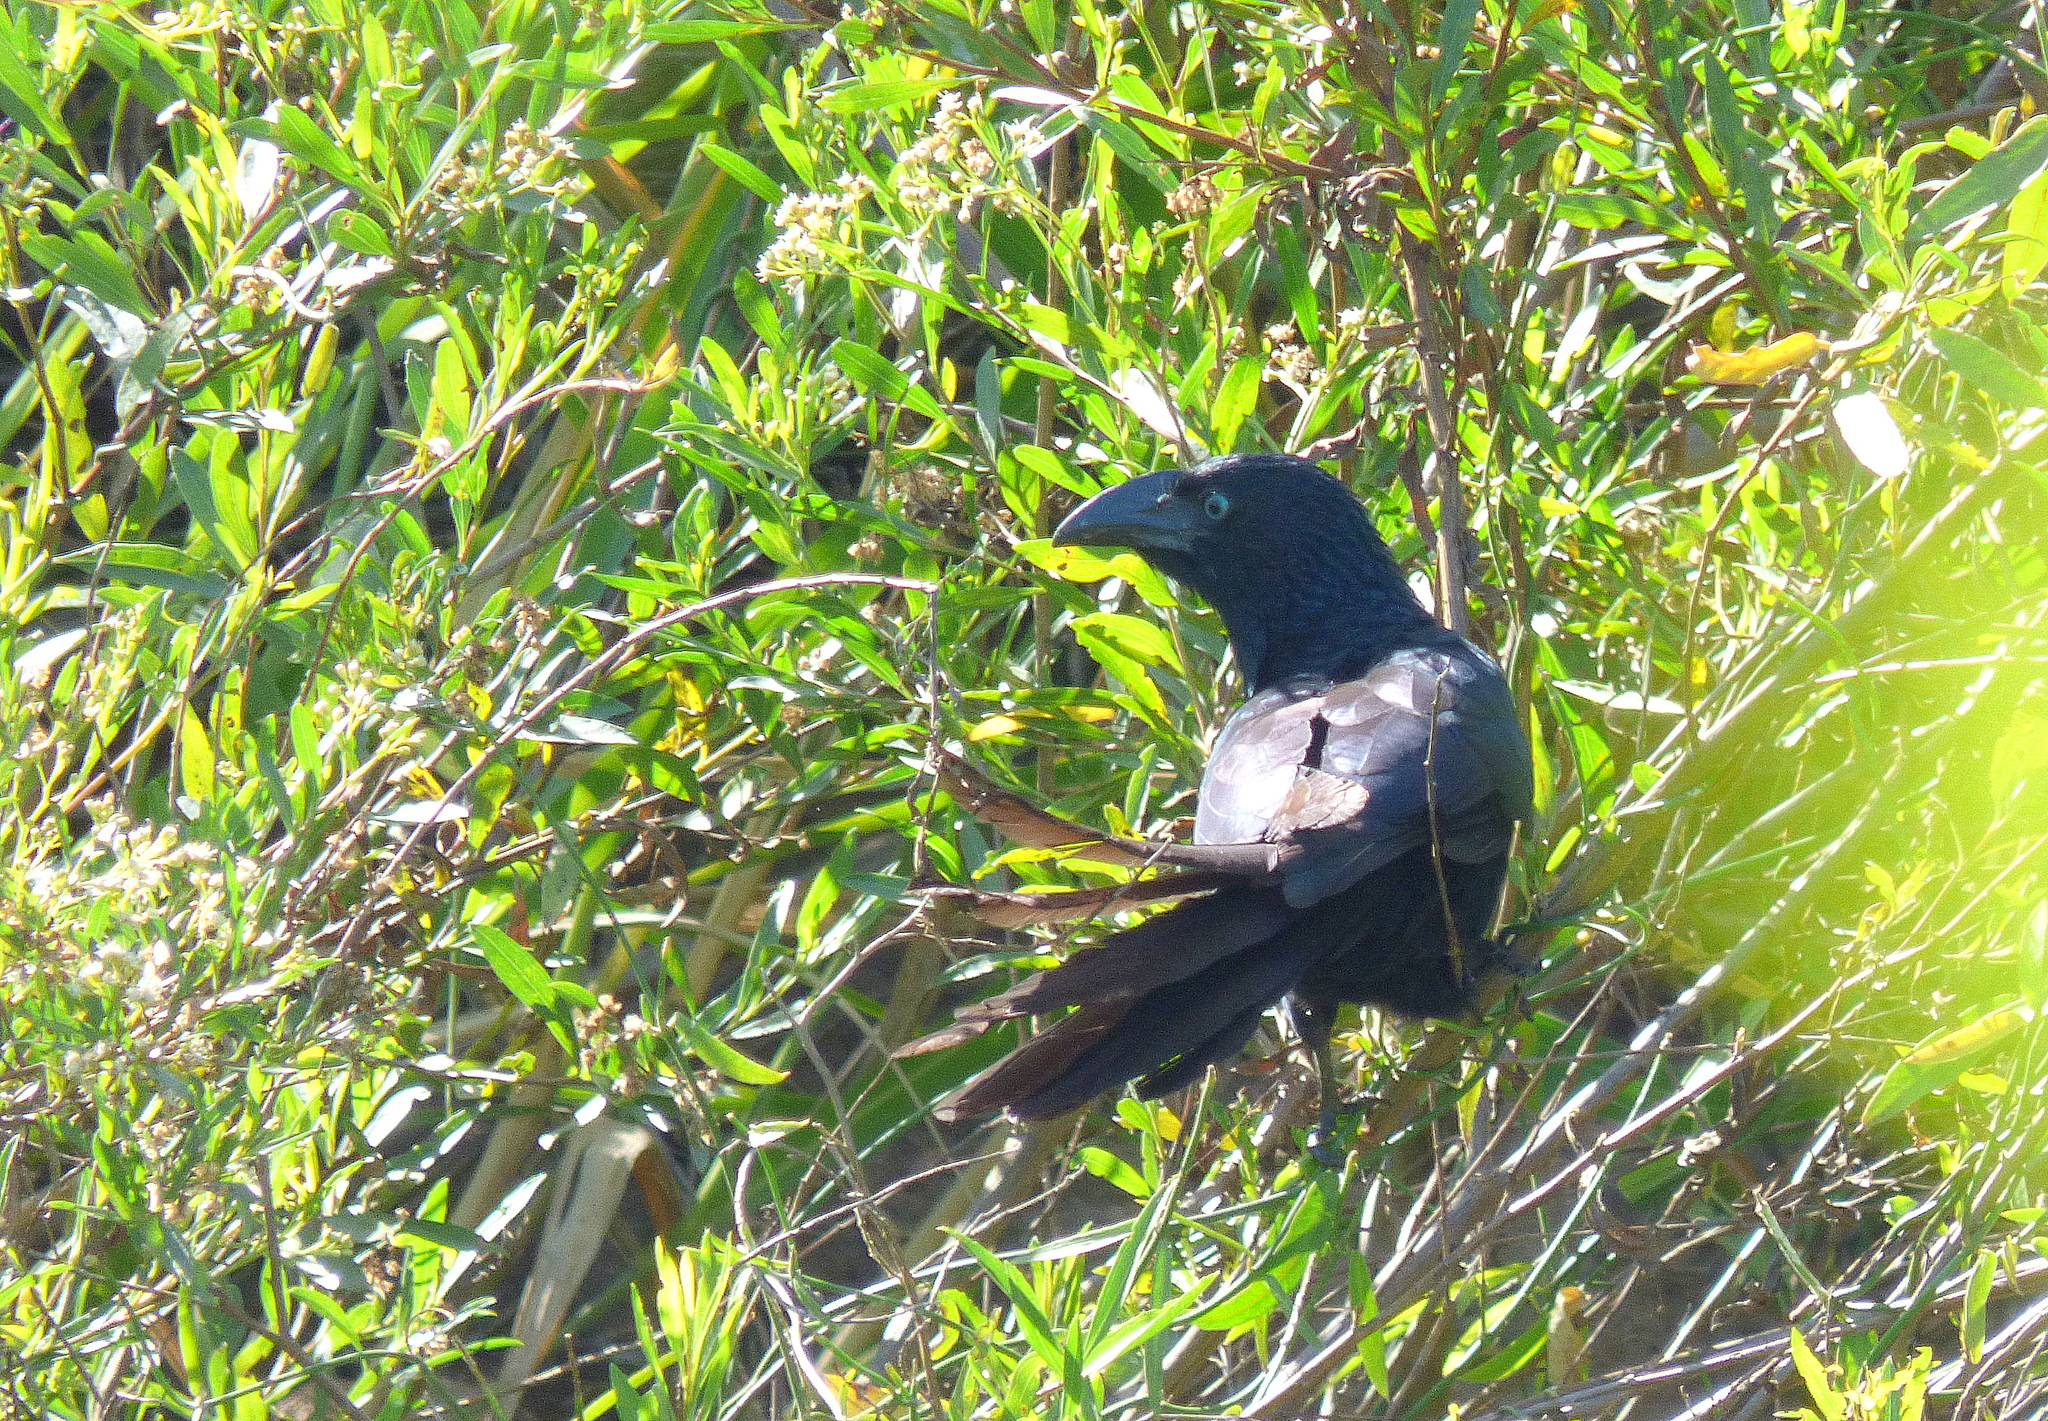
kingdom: Animalia
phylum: Chordata
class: Aves
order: Cuculiformes
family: Cuculidae
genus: Crotophaga
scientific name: Crotophaga major
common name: Greater ani
